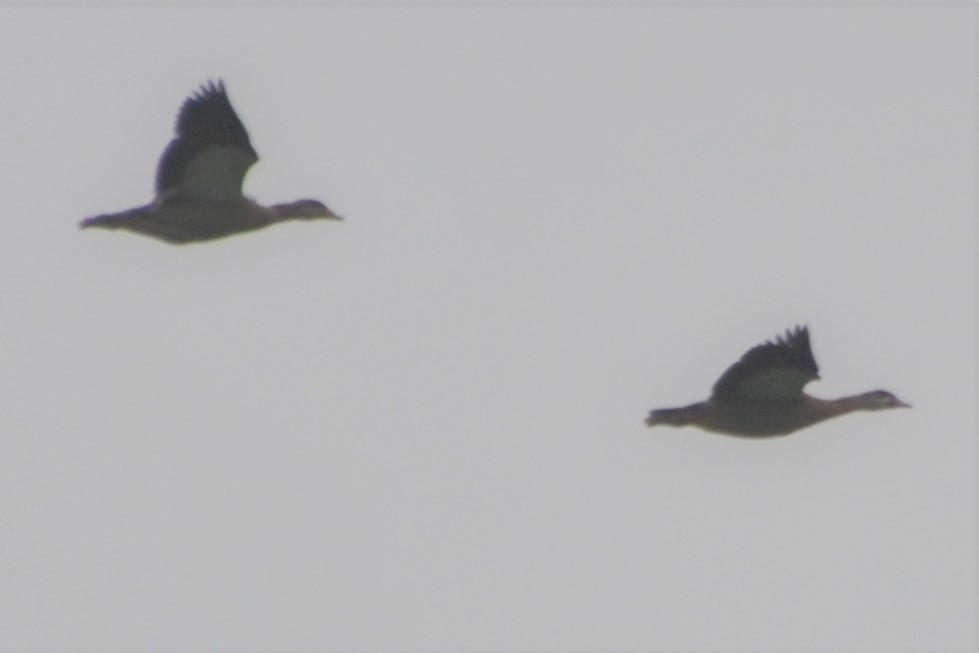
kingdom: Animalia
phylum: Chordata
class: Aves
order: Anseriformes
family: Anatidae
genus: Alopochen
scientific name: Alopochen aegyptiaca
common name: Egyptian goose
